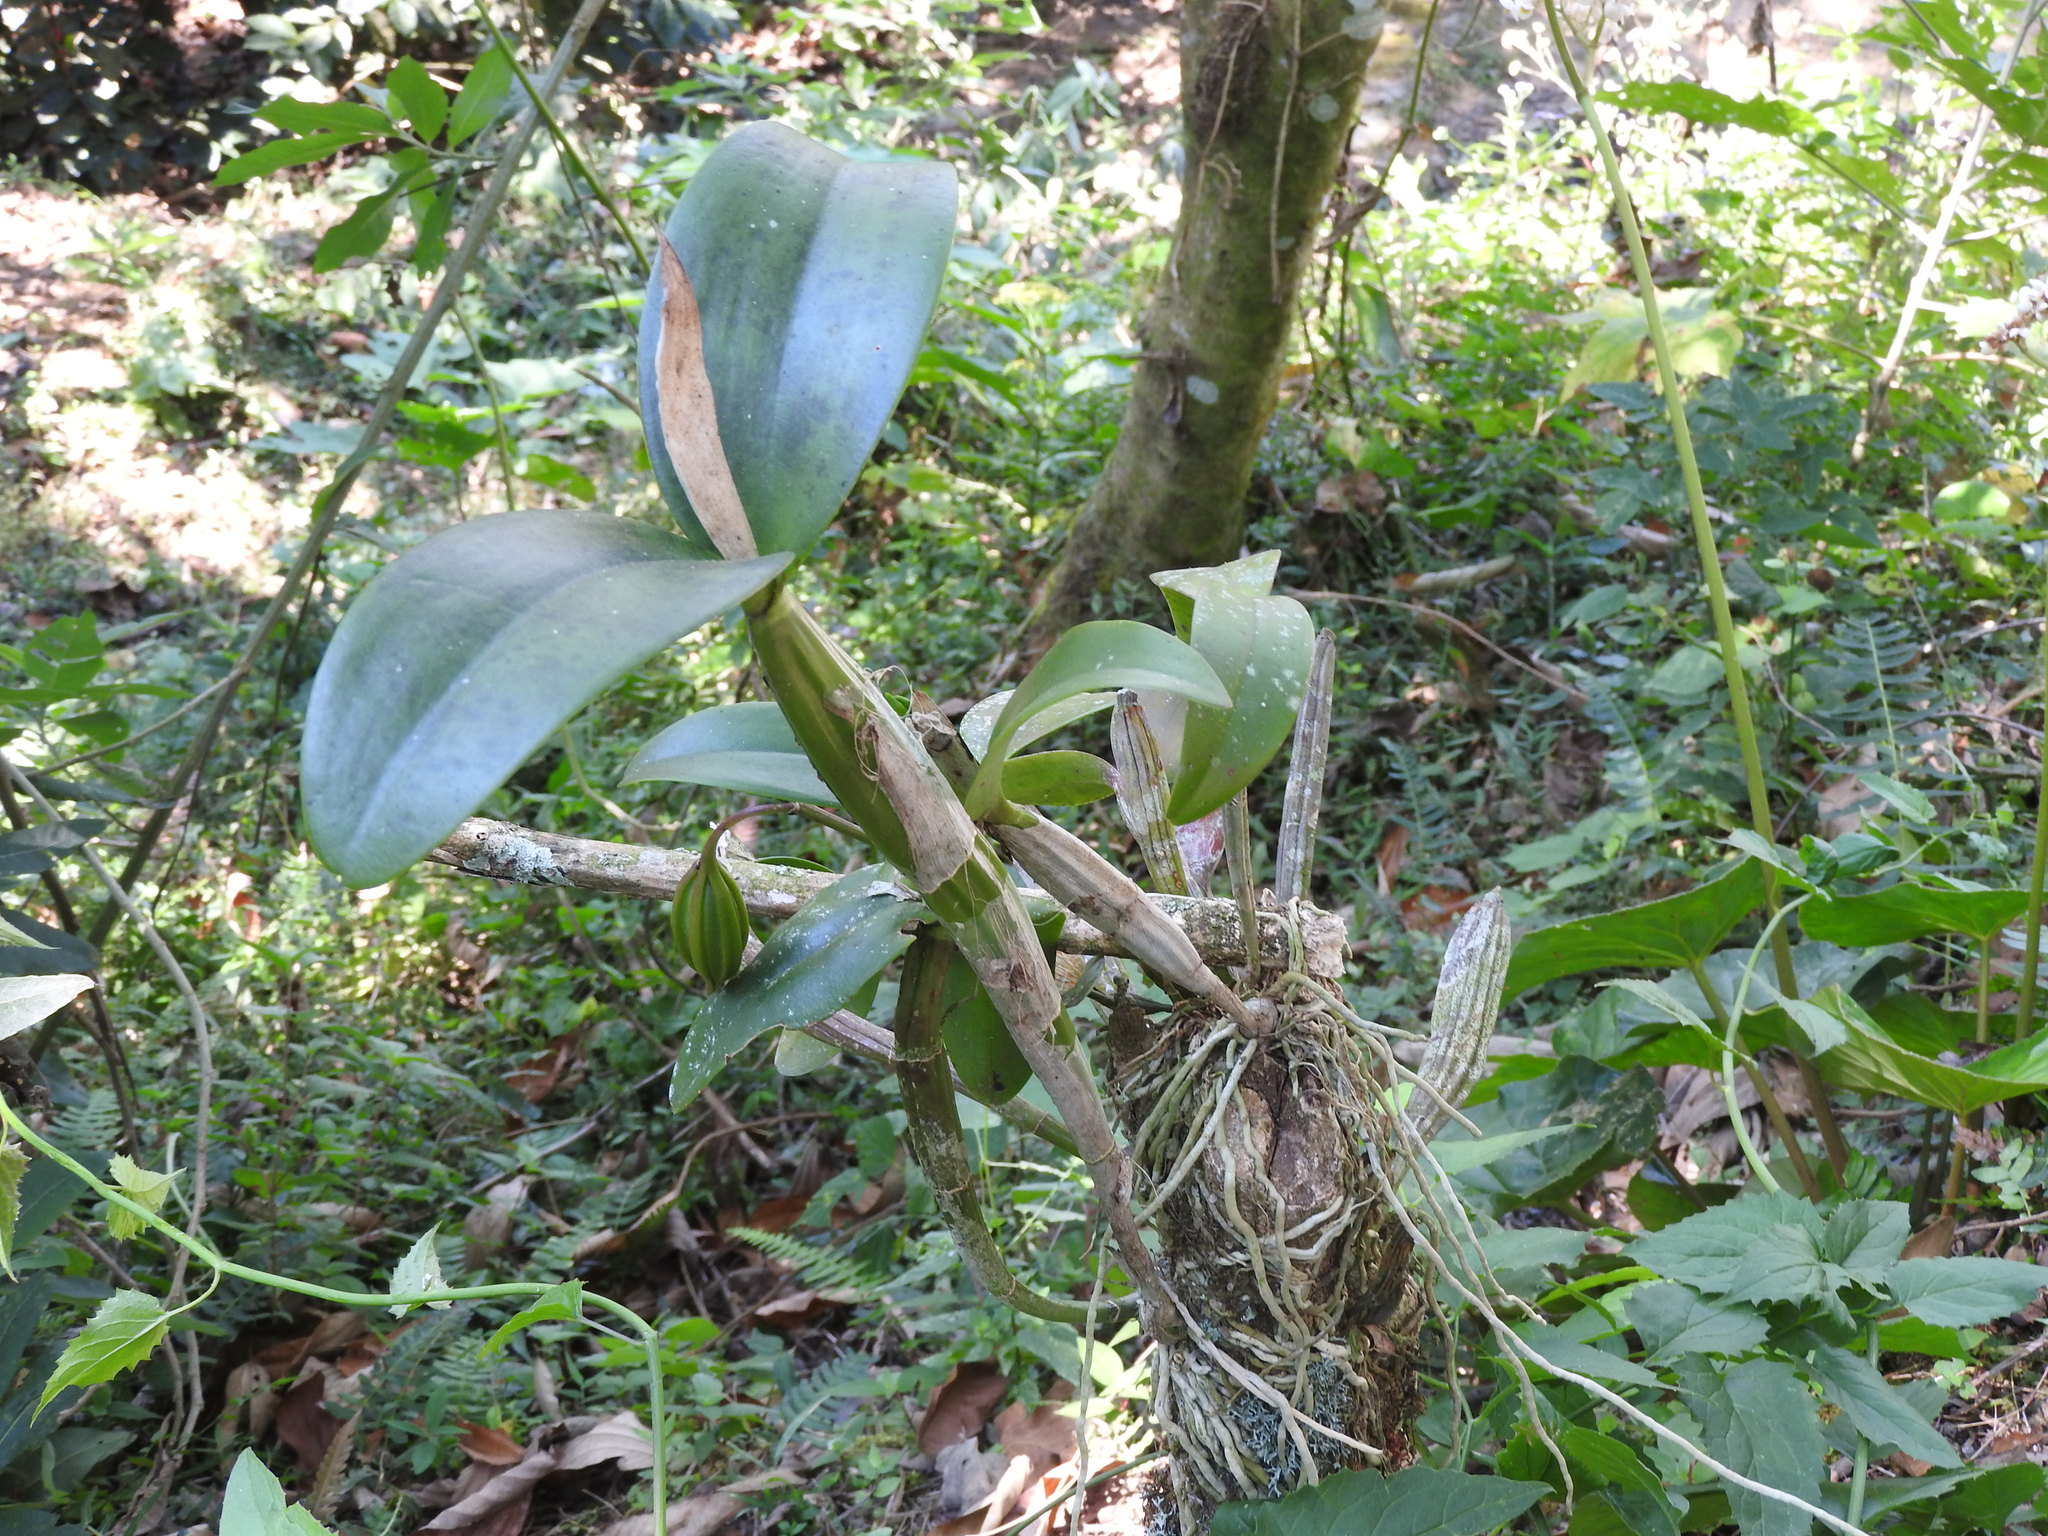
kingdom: Plantae
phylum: Tracheophyta
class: Liliopsida
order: Asparagales
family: Orchidaceae
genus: Guarianthe
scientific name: Guarianthe aurantiaca
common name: Orange cattleya
